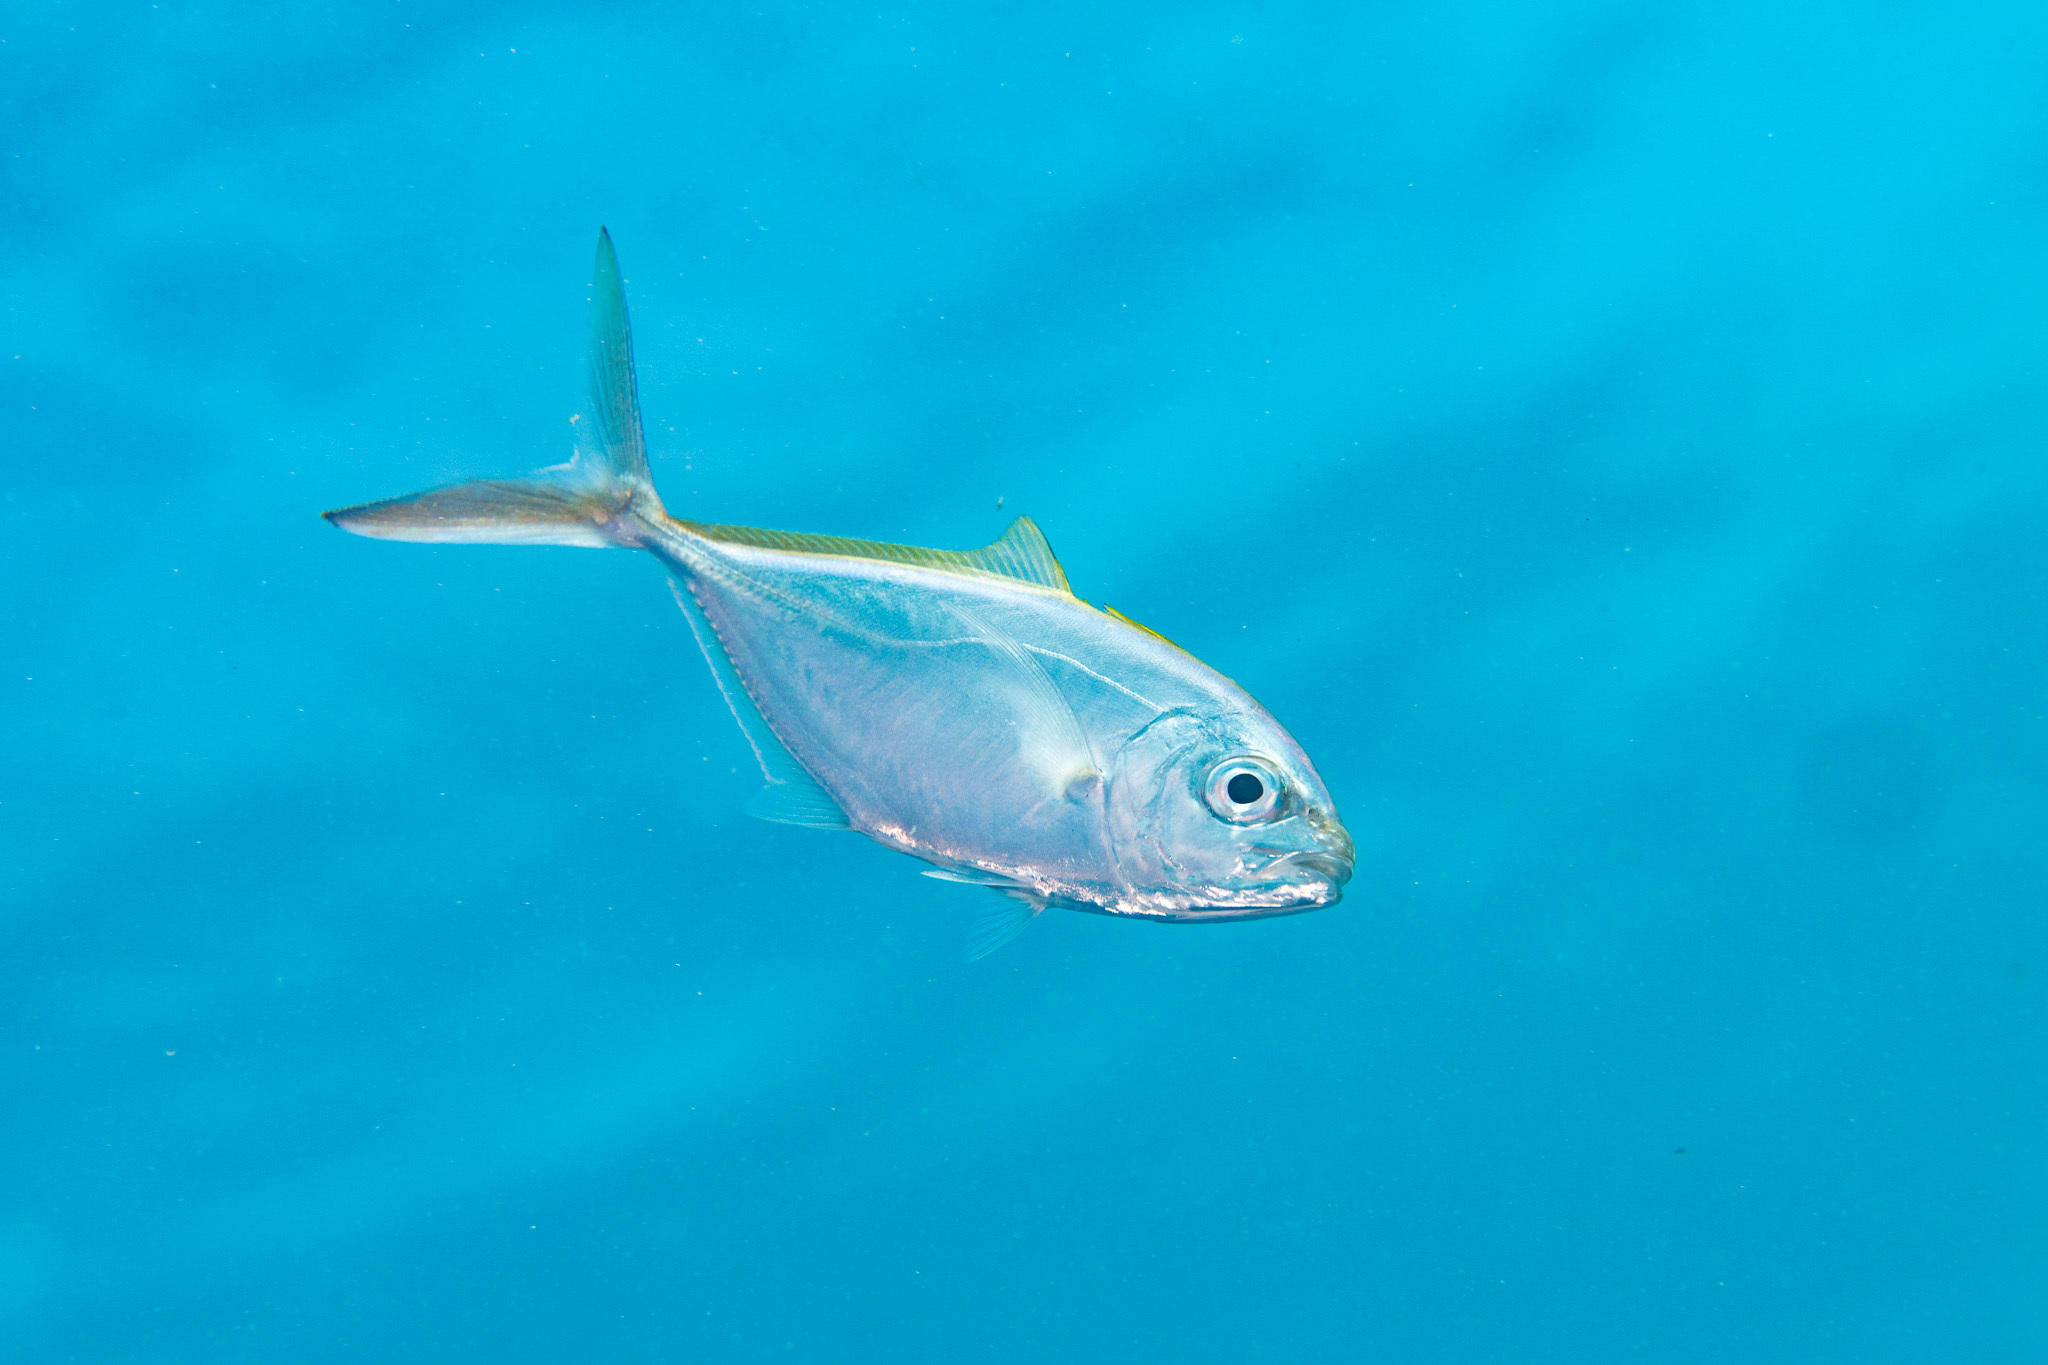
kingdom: Animalia
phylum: Chordata
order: Perciformes
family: Carangidae
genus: Caranx
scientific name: Caranx ruber
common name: Bar jack
